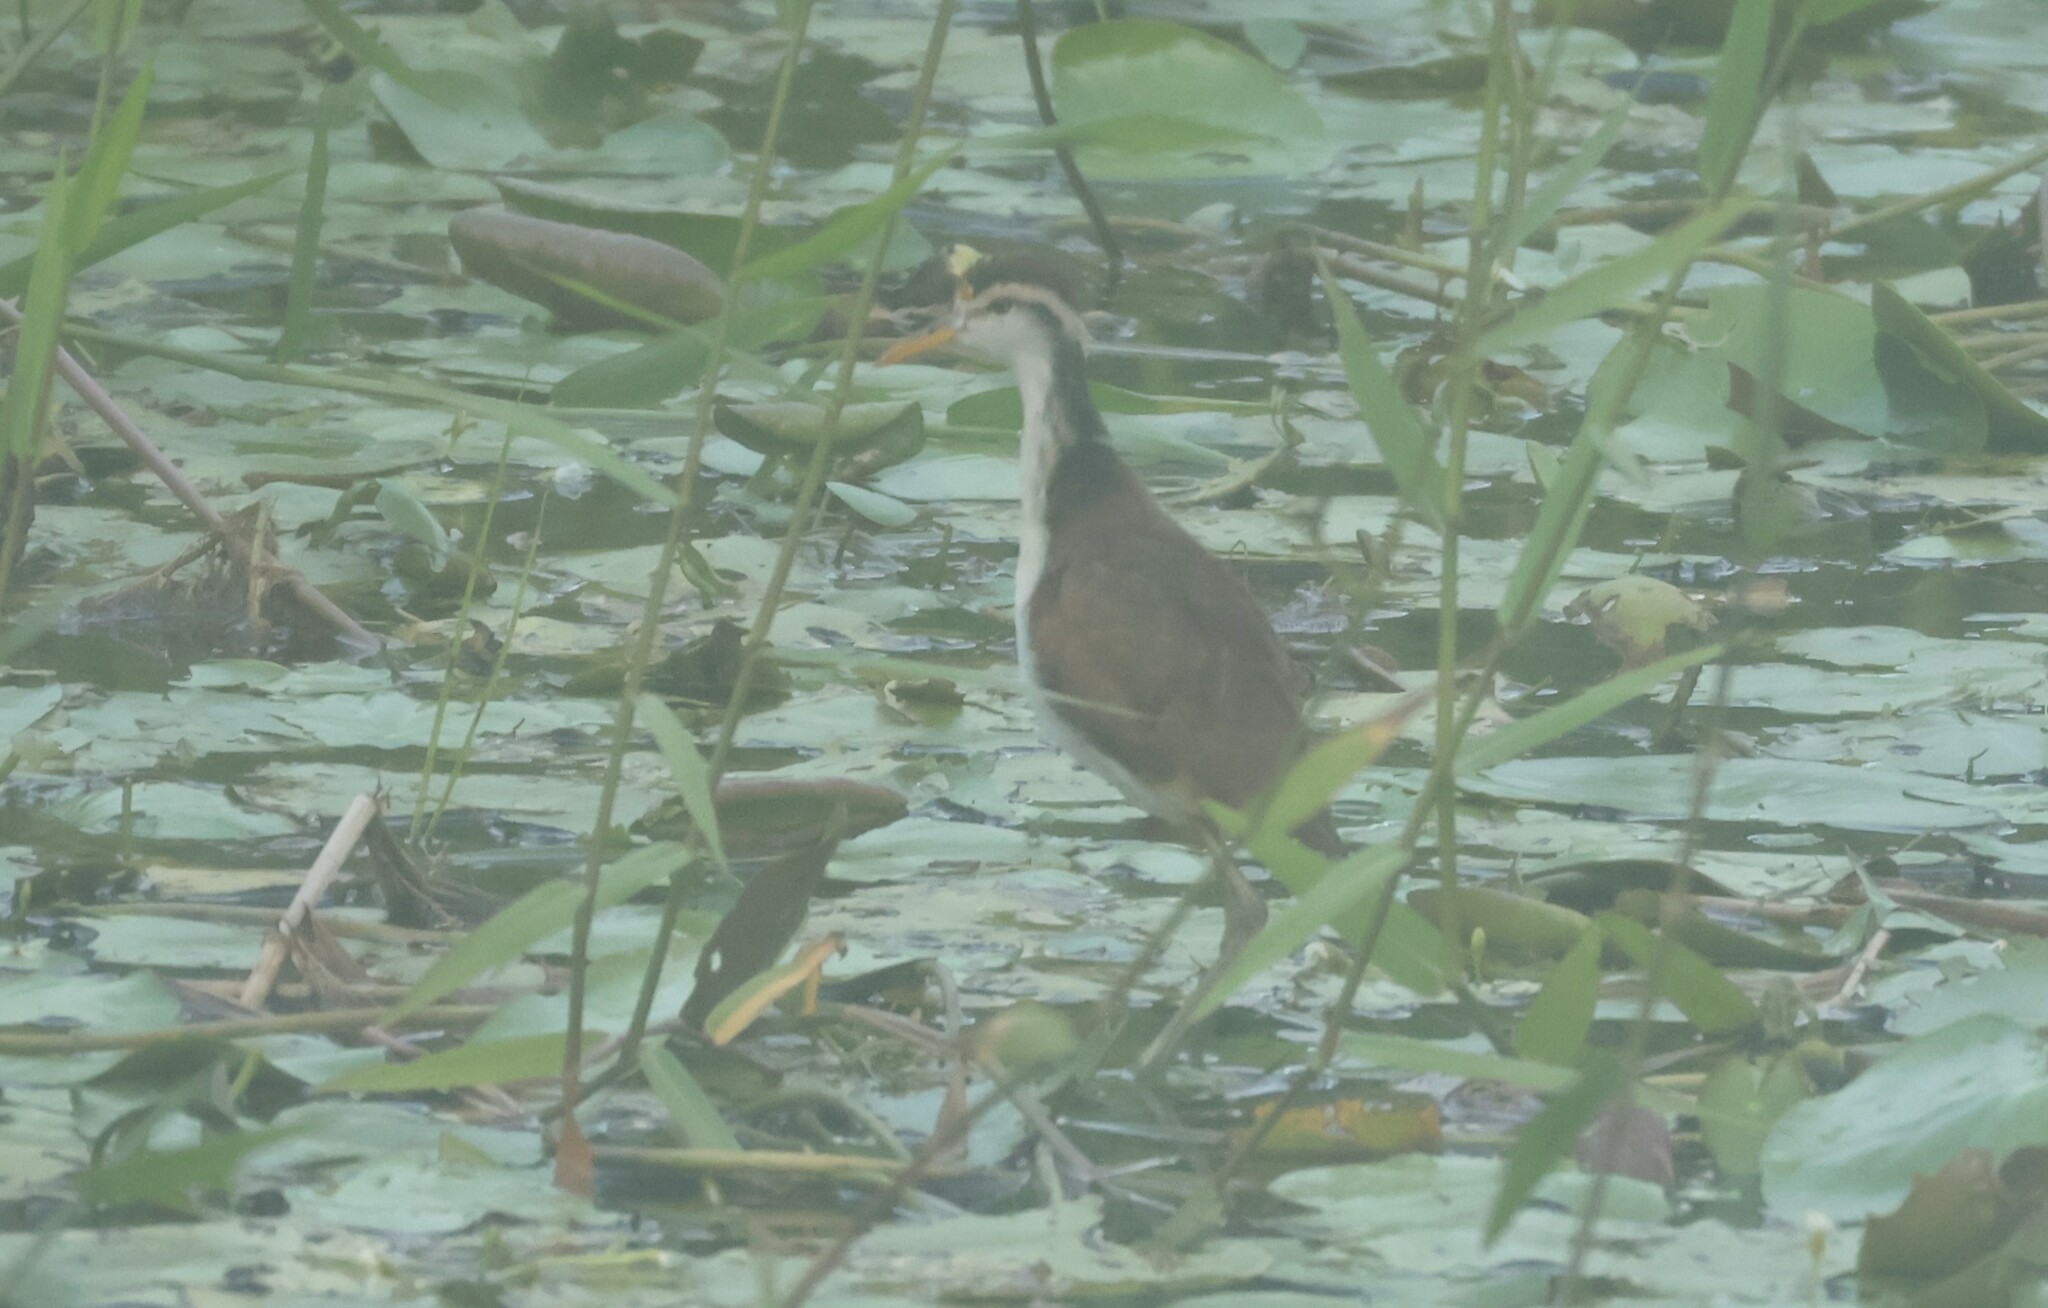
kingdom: Animalia
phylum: Chordata
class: Aves
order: Charadriiformes
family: Jacanidae
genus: Jacana
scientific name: Jacana spinosa
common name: Northern jacana
